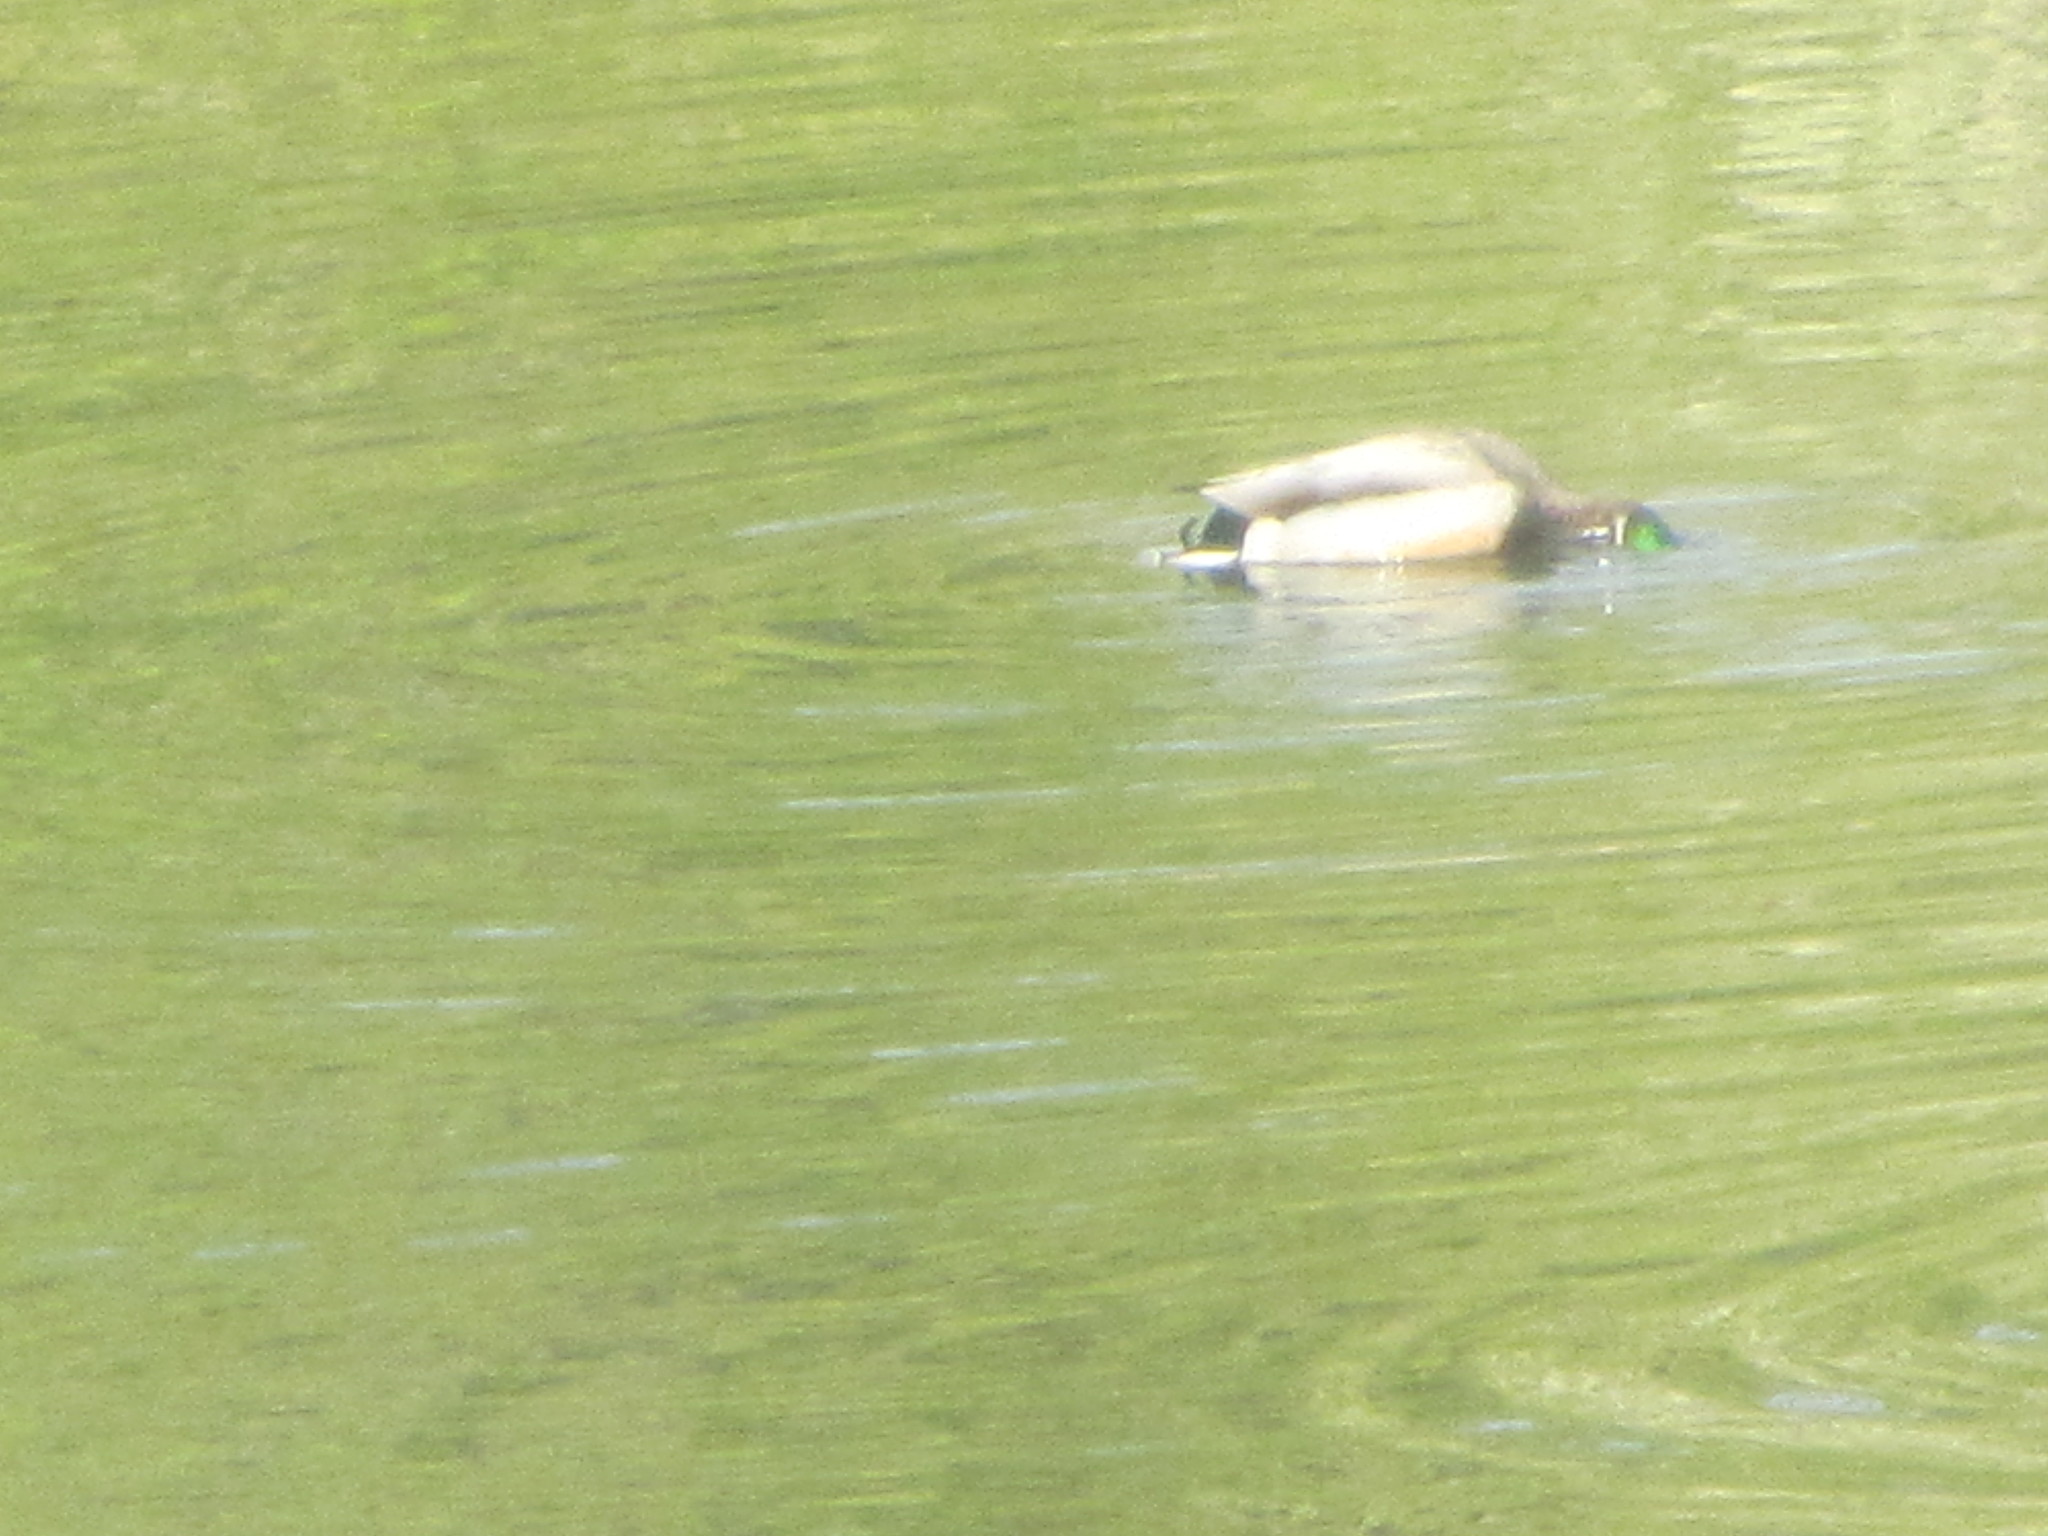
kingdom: Animalia
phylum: Chordata
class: Aves
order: Anseriformes
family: Anatidae
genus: Anas
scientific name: Anas platyrhynchos
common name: Mallard
